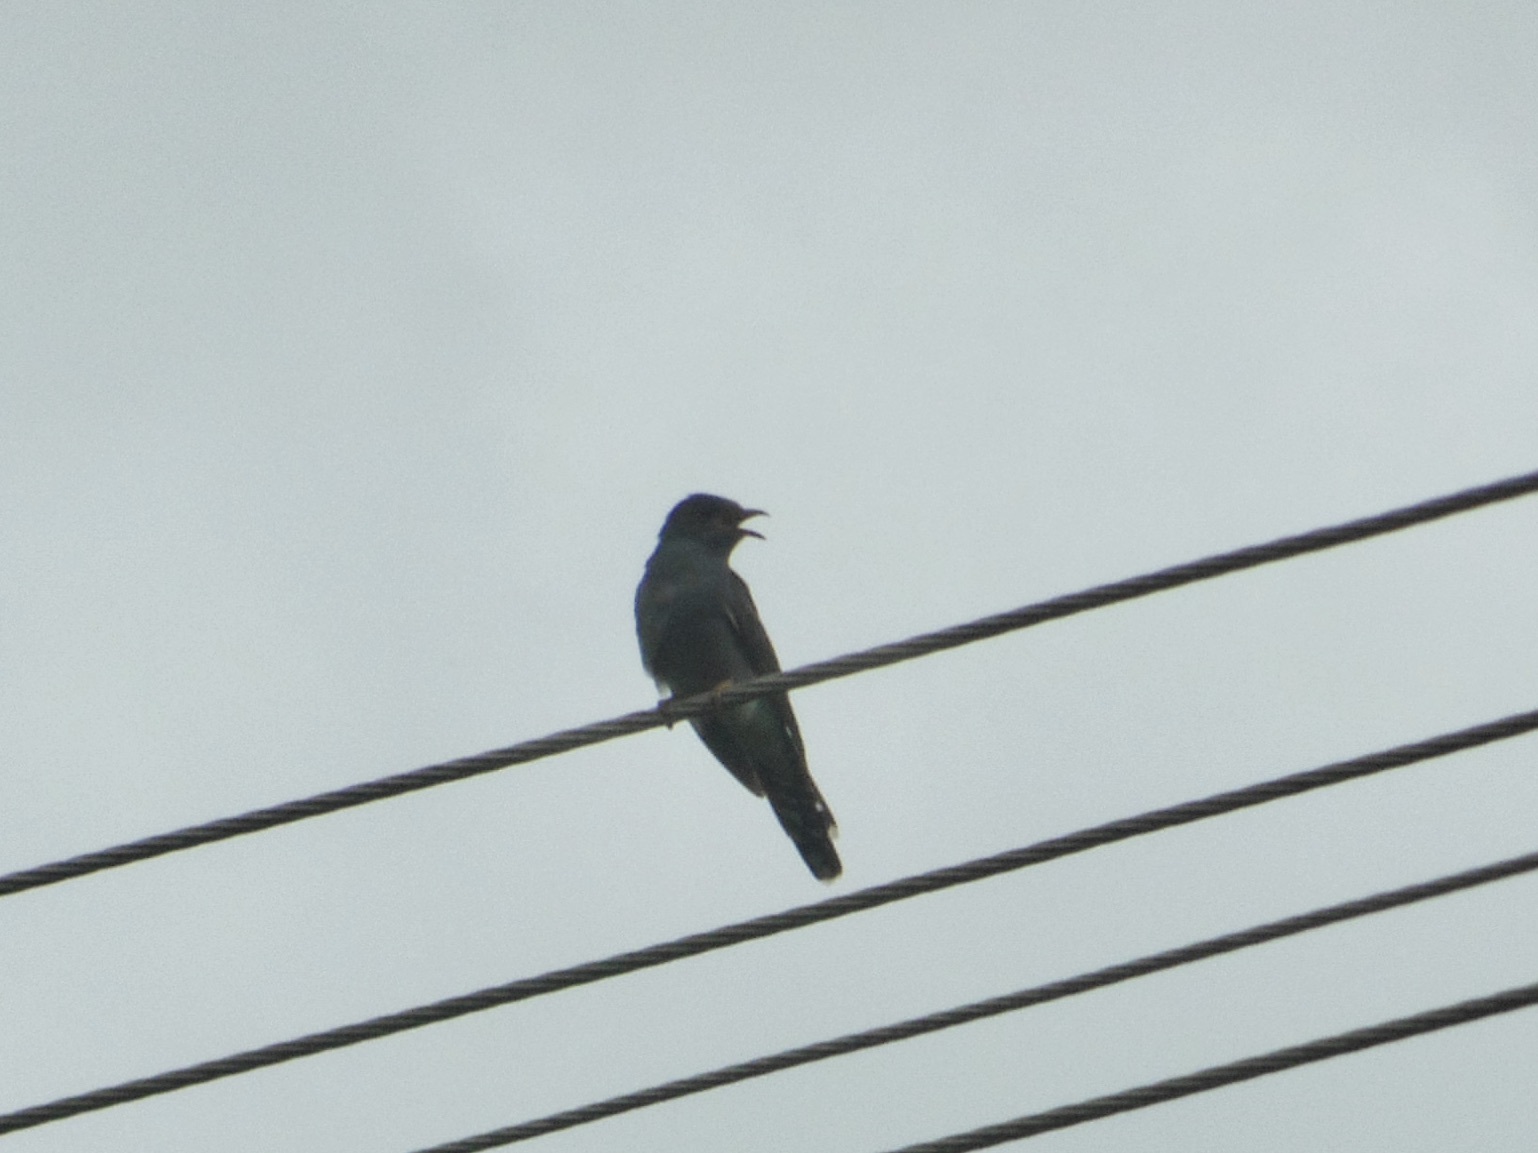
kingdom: Animalia
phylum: Chordata
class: Aves
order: Cuculiformes
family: Cuculidae
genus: Cacomantis
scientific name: Cacomantis passerinus
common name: Grey-bellied cuckoo
